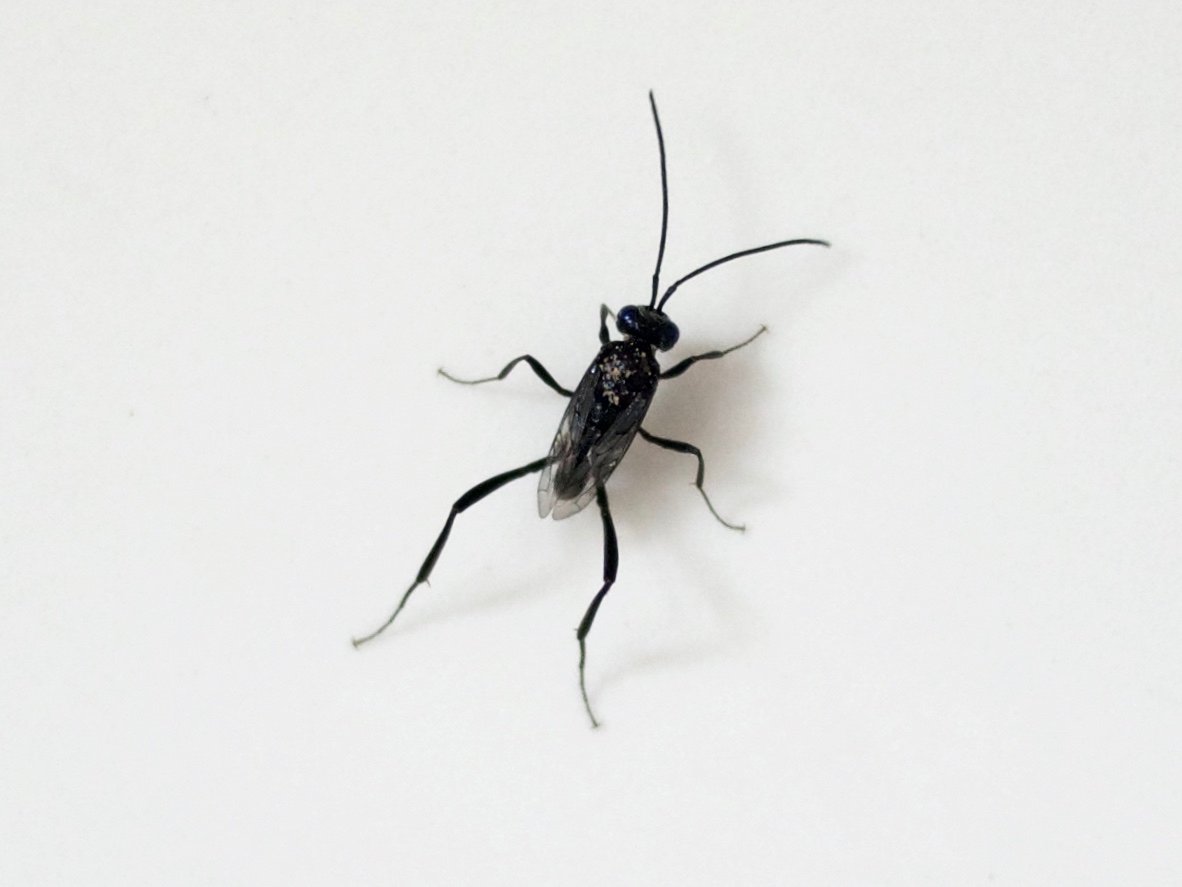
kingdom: Animalia
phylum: Arthropoda
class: Insecta
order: Hymenoptera
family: Evaniidae
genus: Evania
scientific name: Evania appendigaster
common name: Ensign wasp
